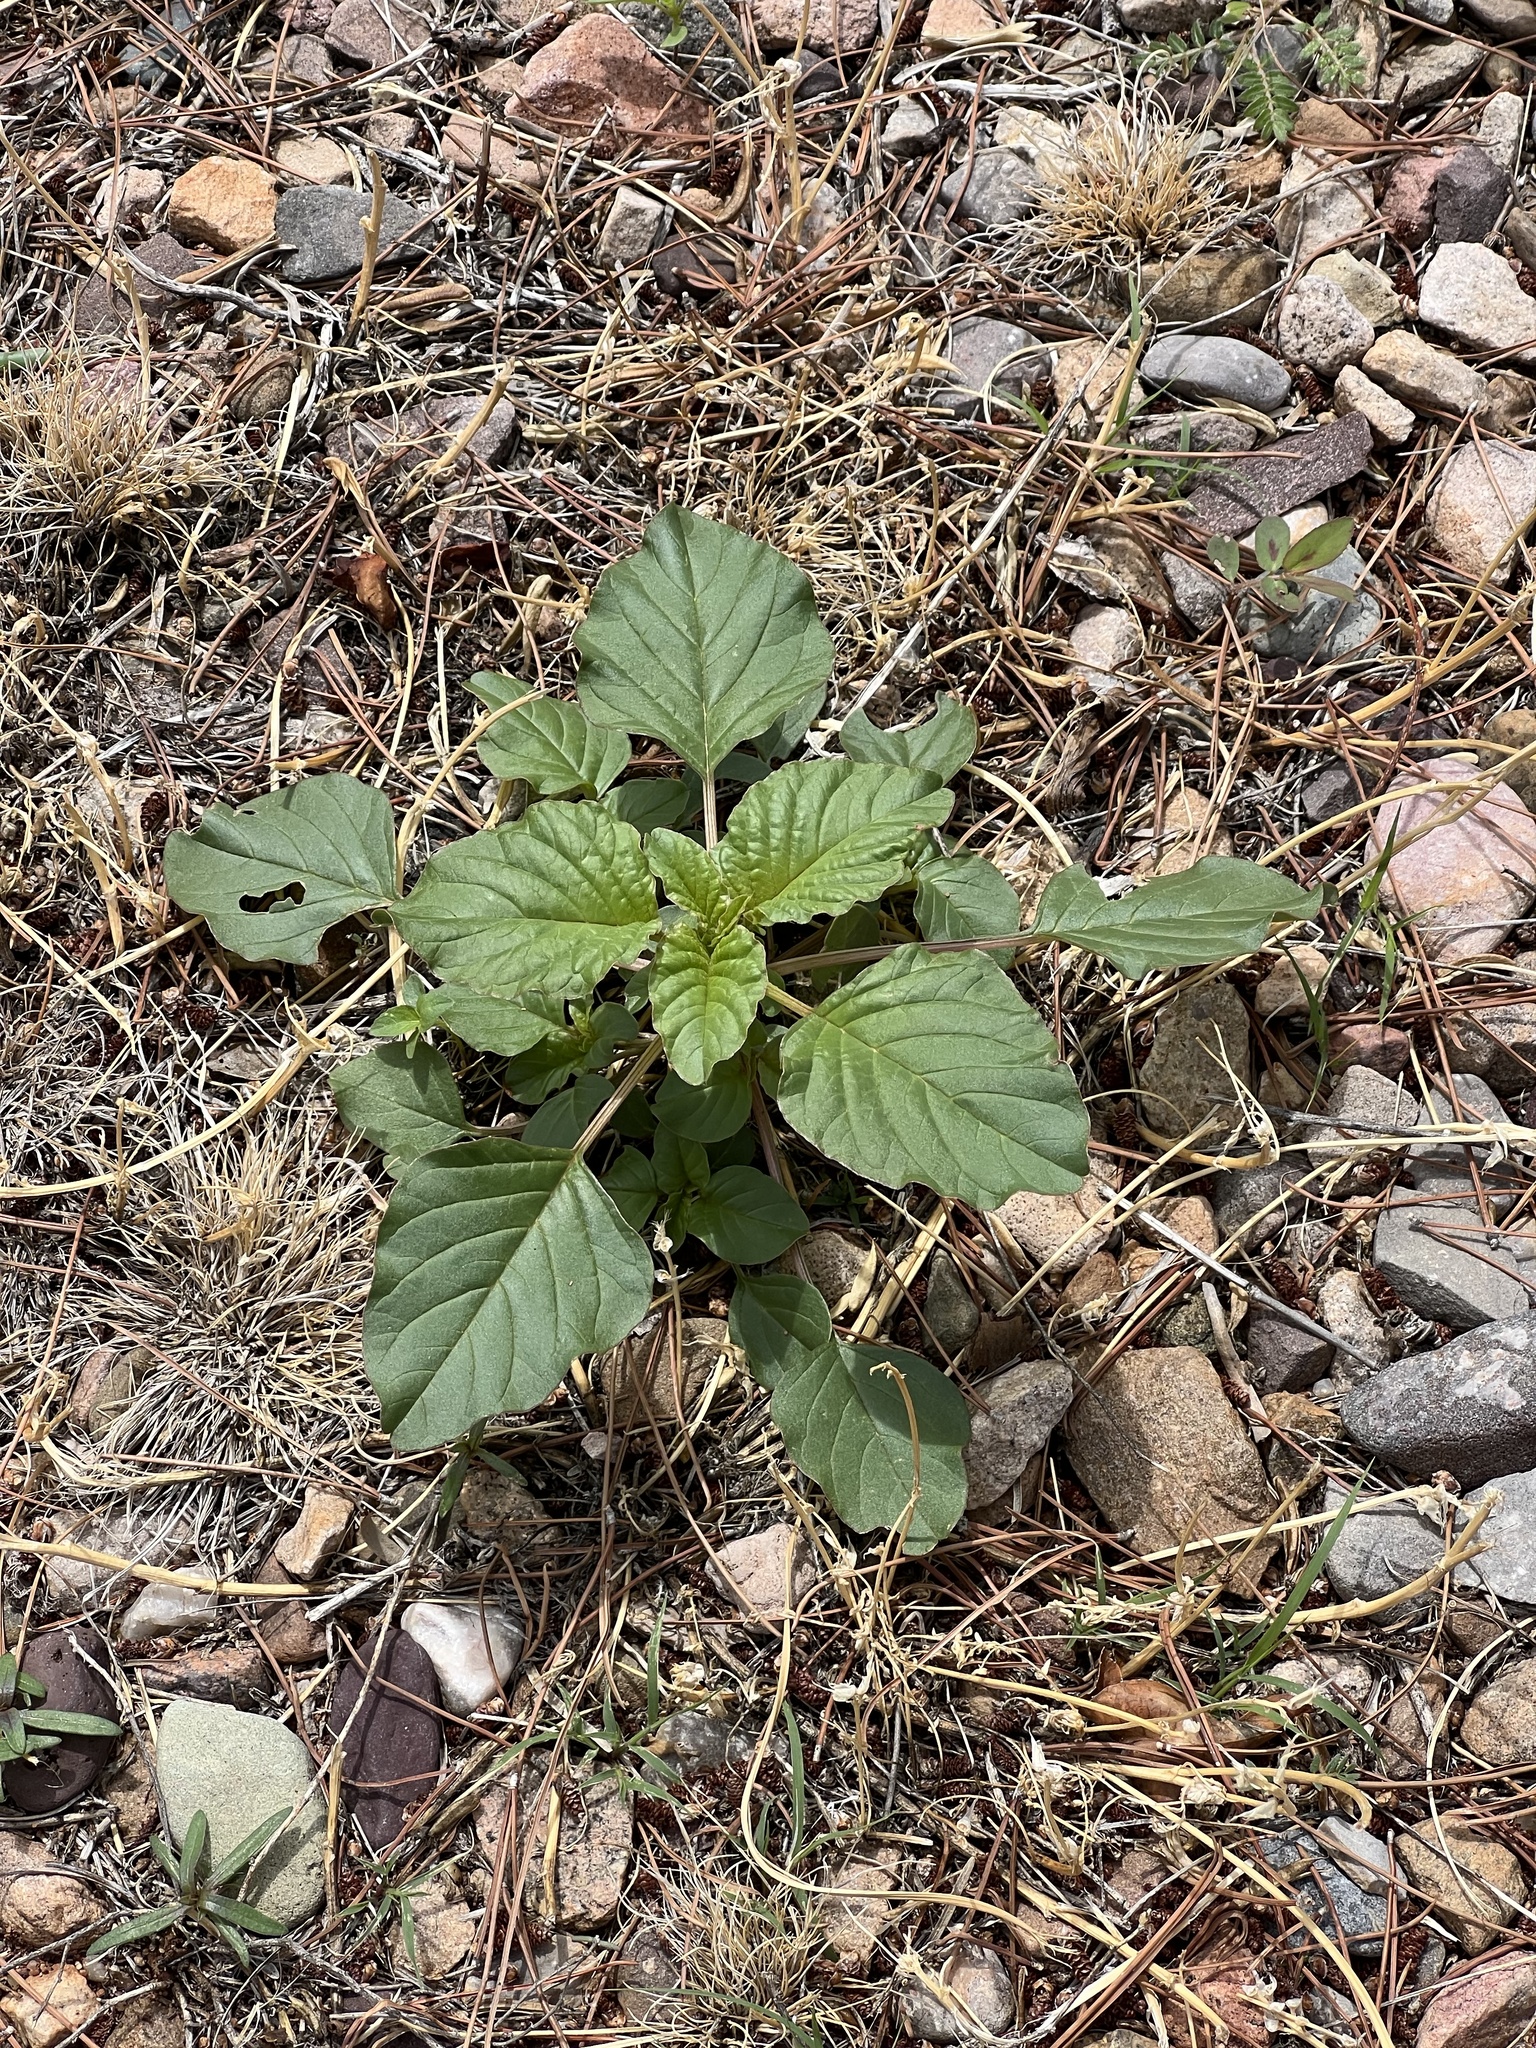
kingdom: Plantae
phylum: Tracheophyta
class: Magnoliopsida
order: Caryophyllales
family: Amaranthaceae
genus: Amaranthus
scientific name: Amaranthus palmeri
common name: Dioecious amaranth
